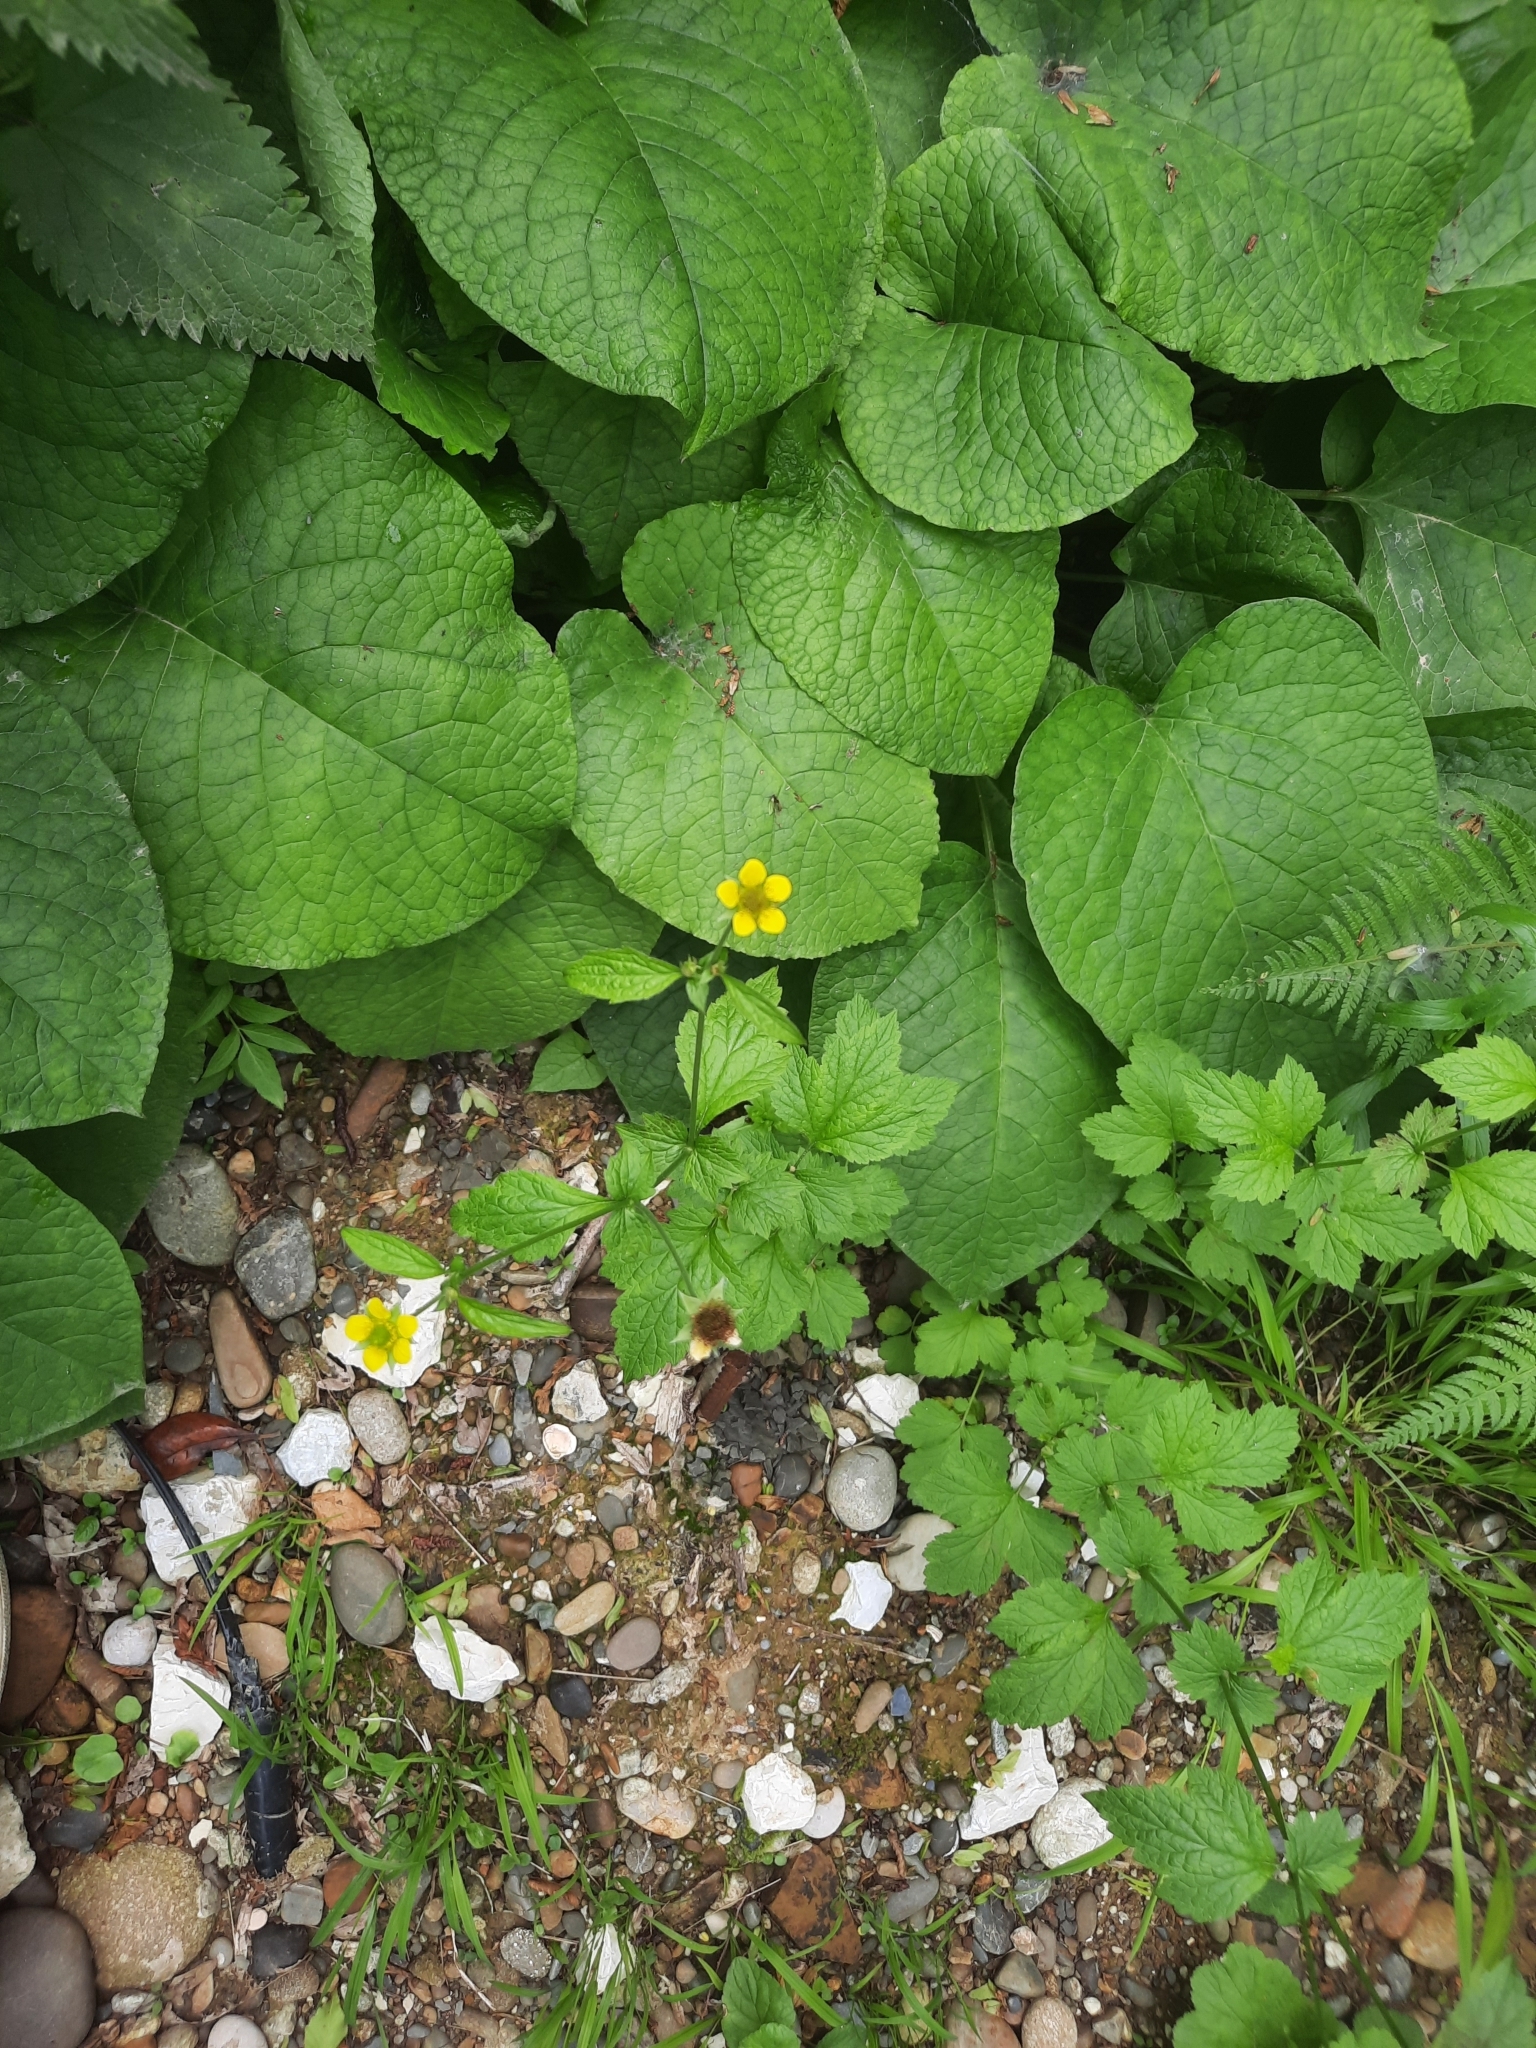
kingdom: Plantae
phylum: Tracheophyta
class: Magnoliopsida
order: Rosales
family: Rosaceae
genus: Geum
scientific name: Geum urbanum
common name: Wood avens
